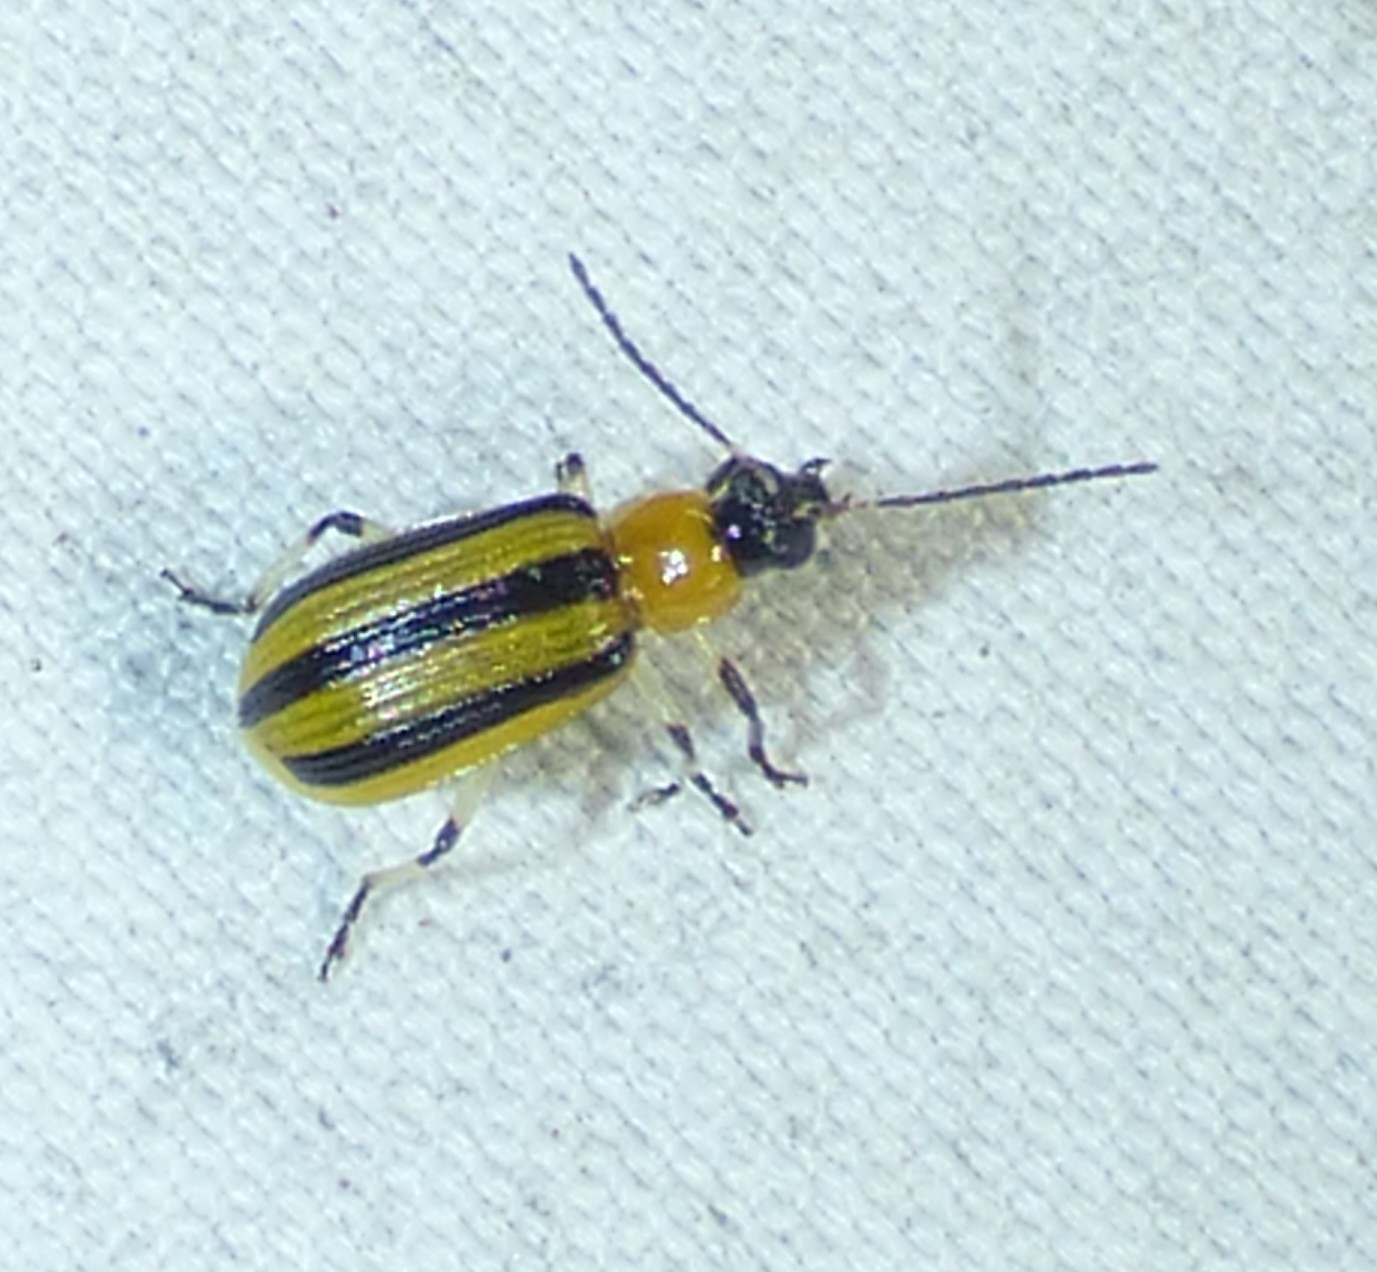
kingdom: Animalia
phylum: Arthropoda
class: Insecta
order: Coleoptera
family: Chrysomelidae
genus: Acalymma
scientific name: Acalymma vittatum
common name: Striped cucumber beetle
